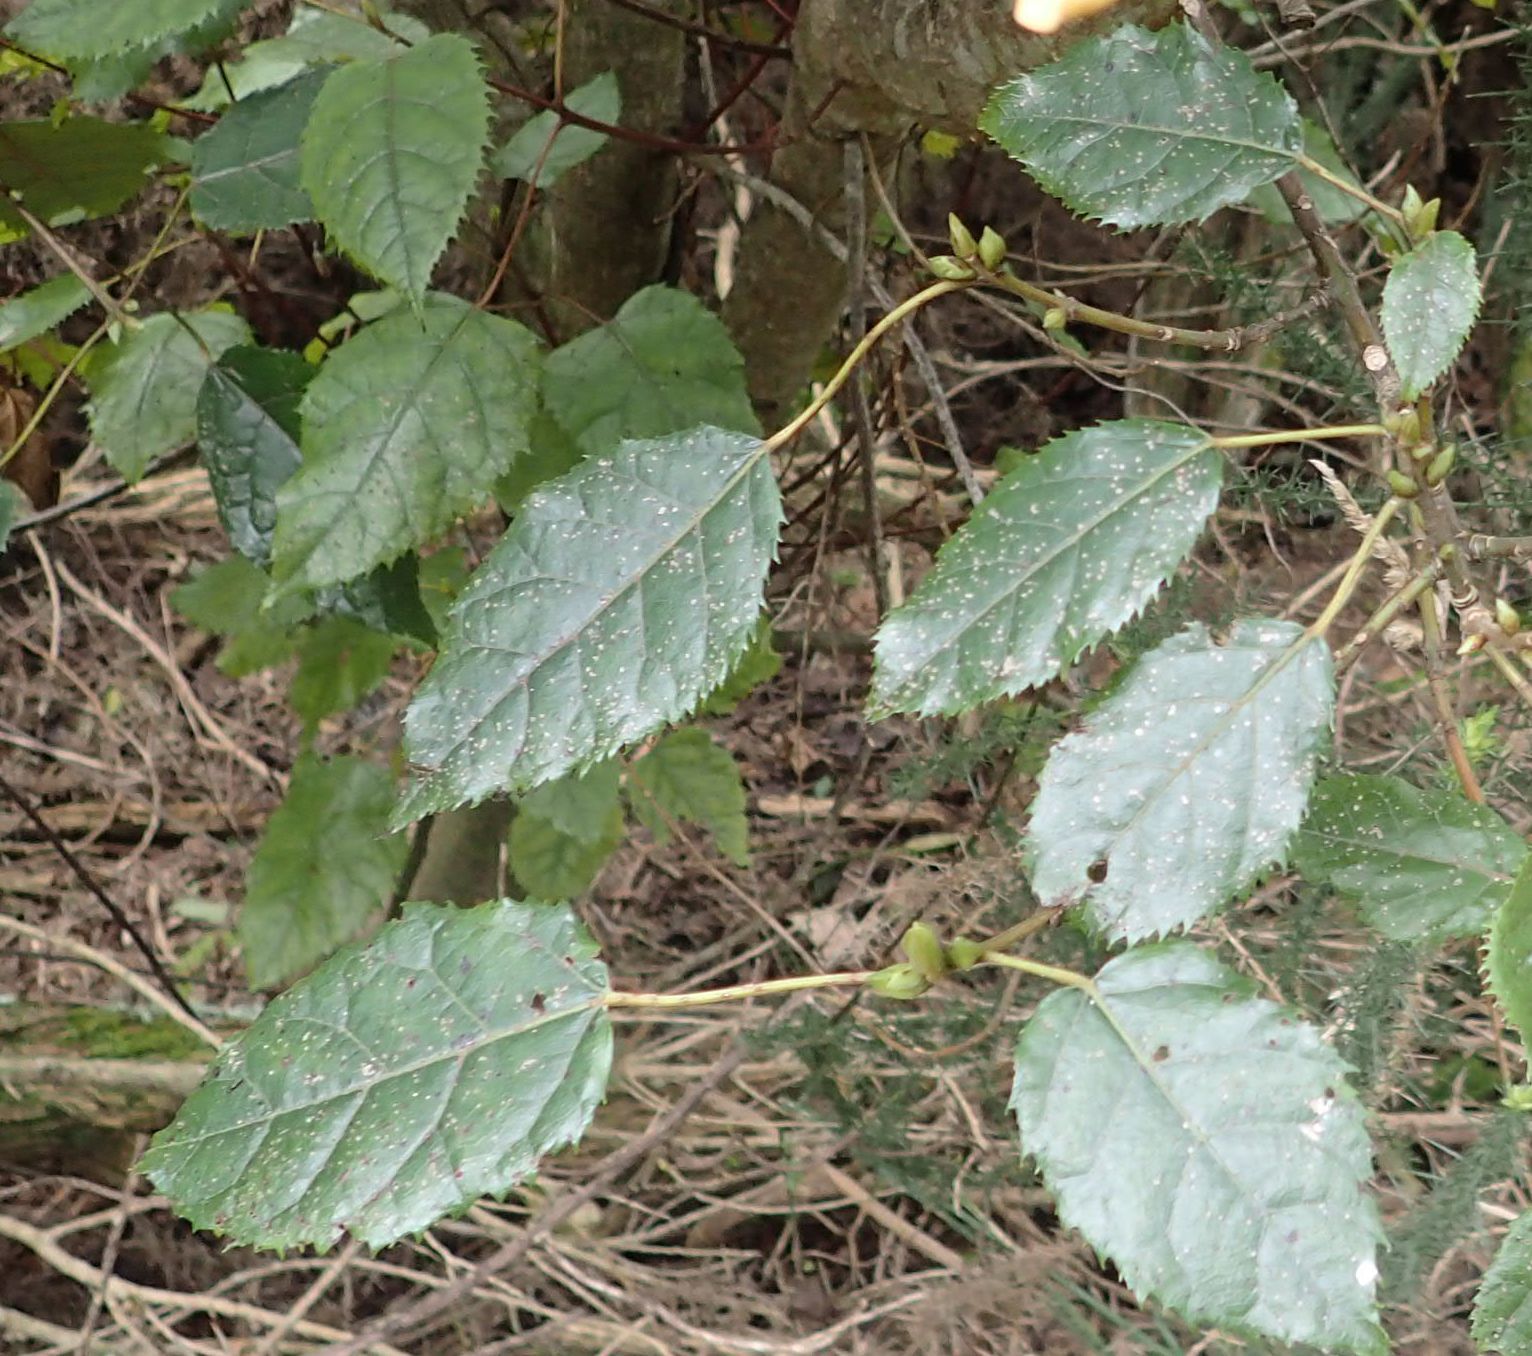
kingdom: Plantae
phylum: Tracheophyta
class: Magnoliopsida
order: Oxalidales
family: Elaeocarpaceae
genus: Aristotelia
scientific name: Aristotelia serrata
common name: New zealand wineberry
